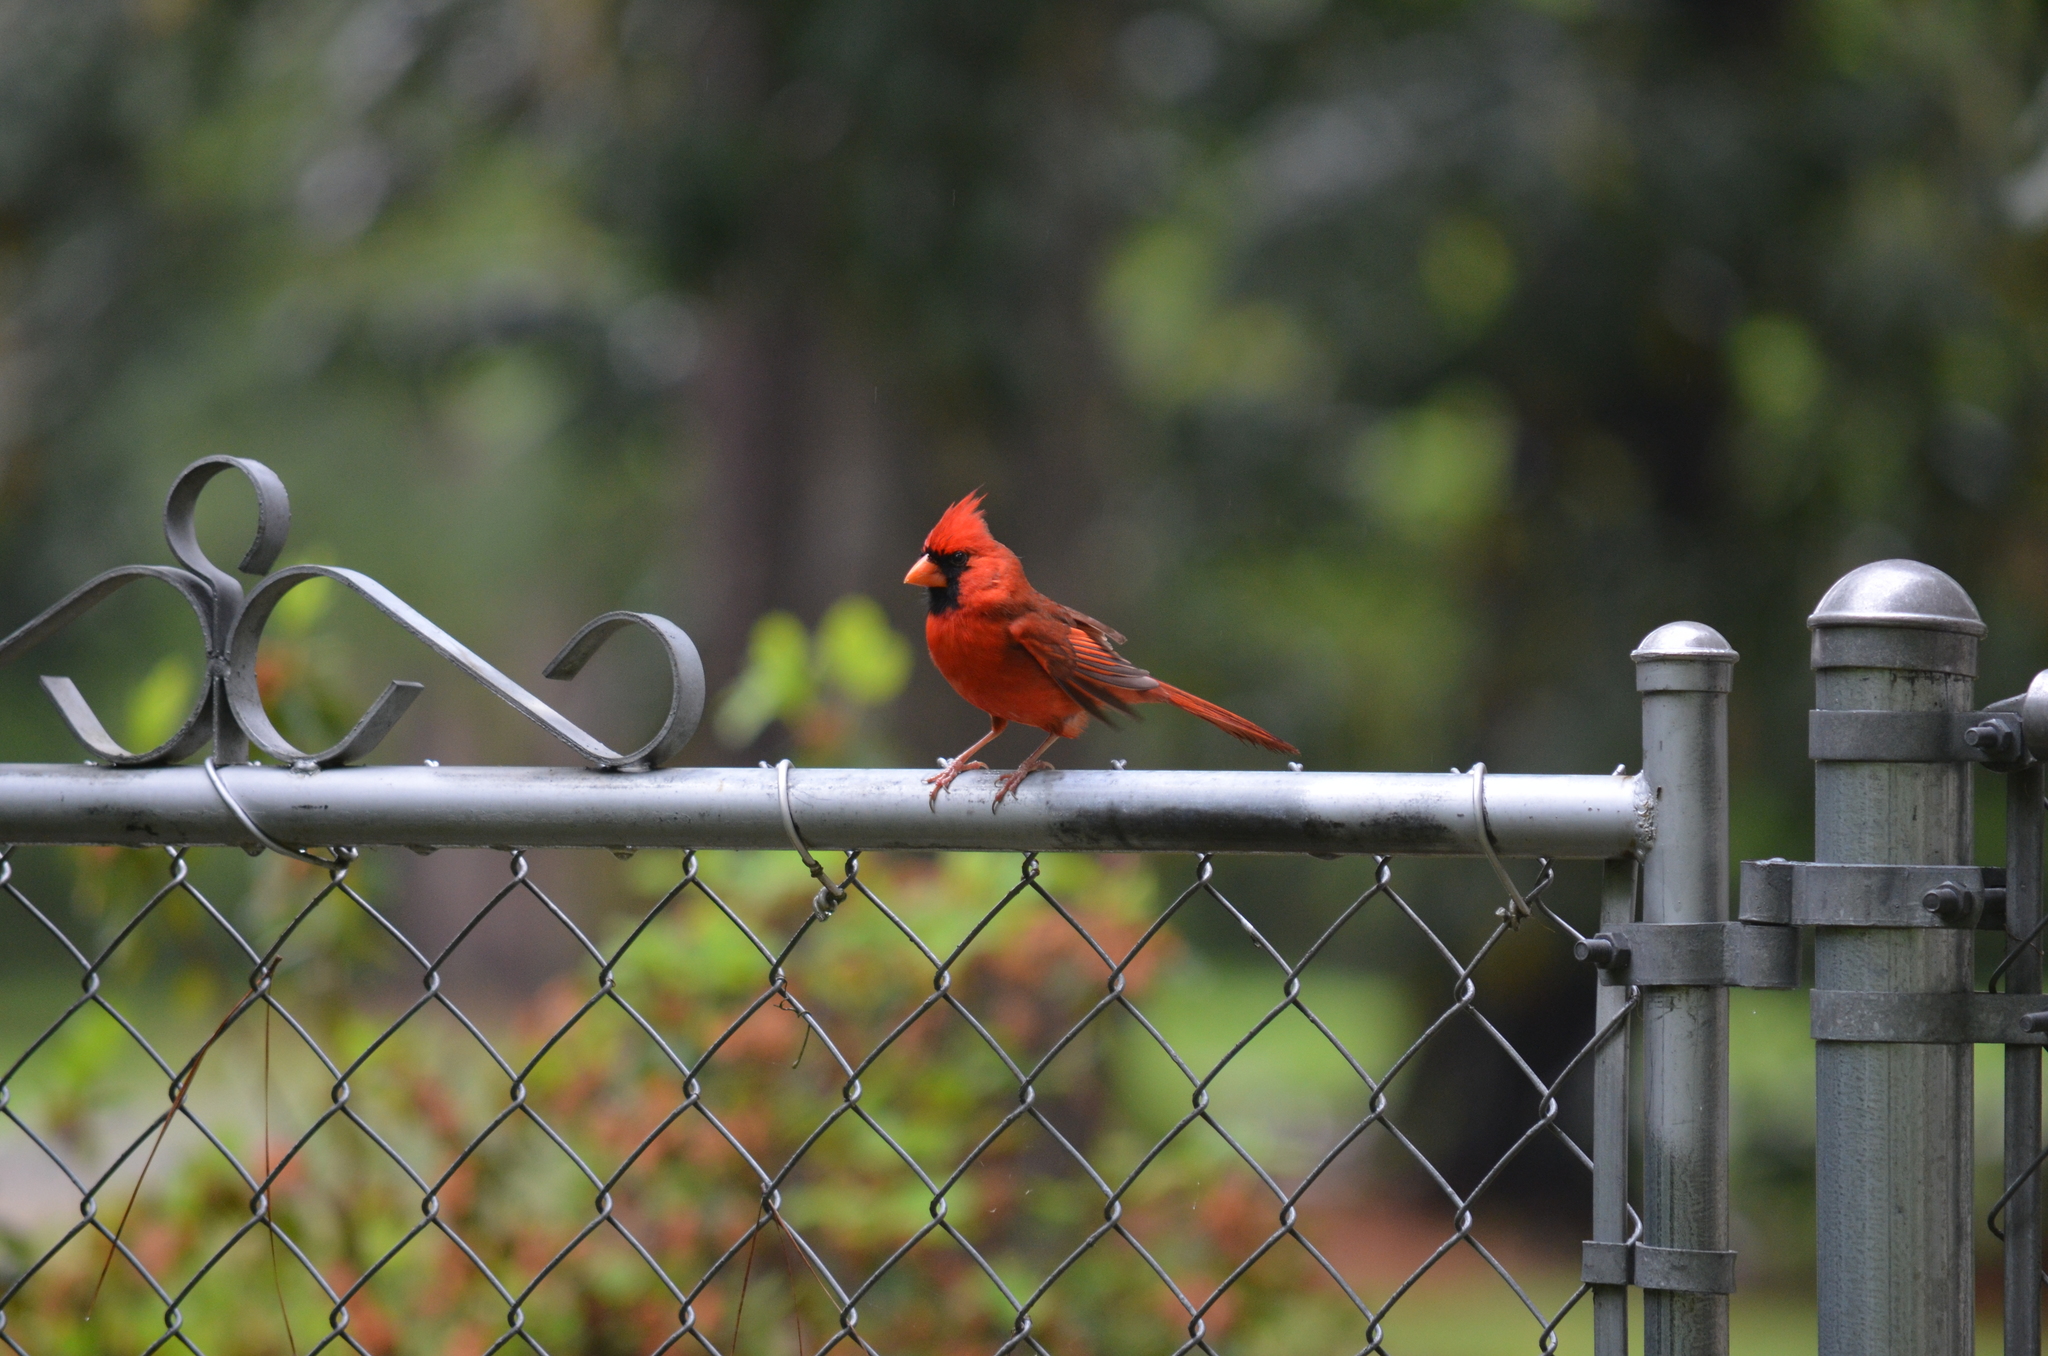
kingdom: Animalia
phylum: Chordata
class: Aves
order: Passeriformes
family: Cardinalidae
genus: Cardinalis
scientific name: Cardinalis cardinalis
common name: Northern cardinal
